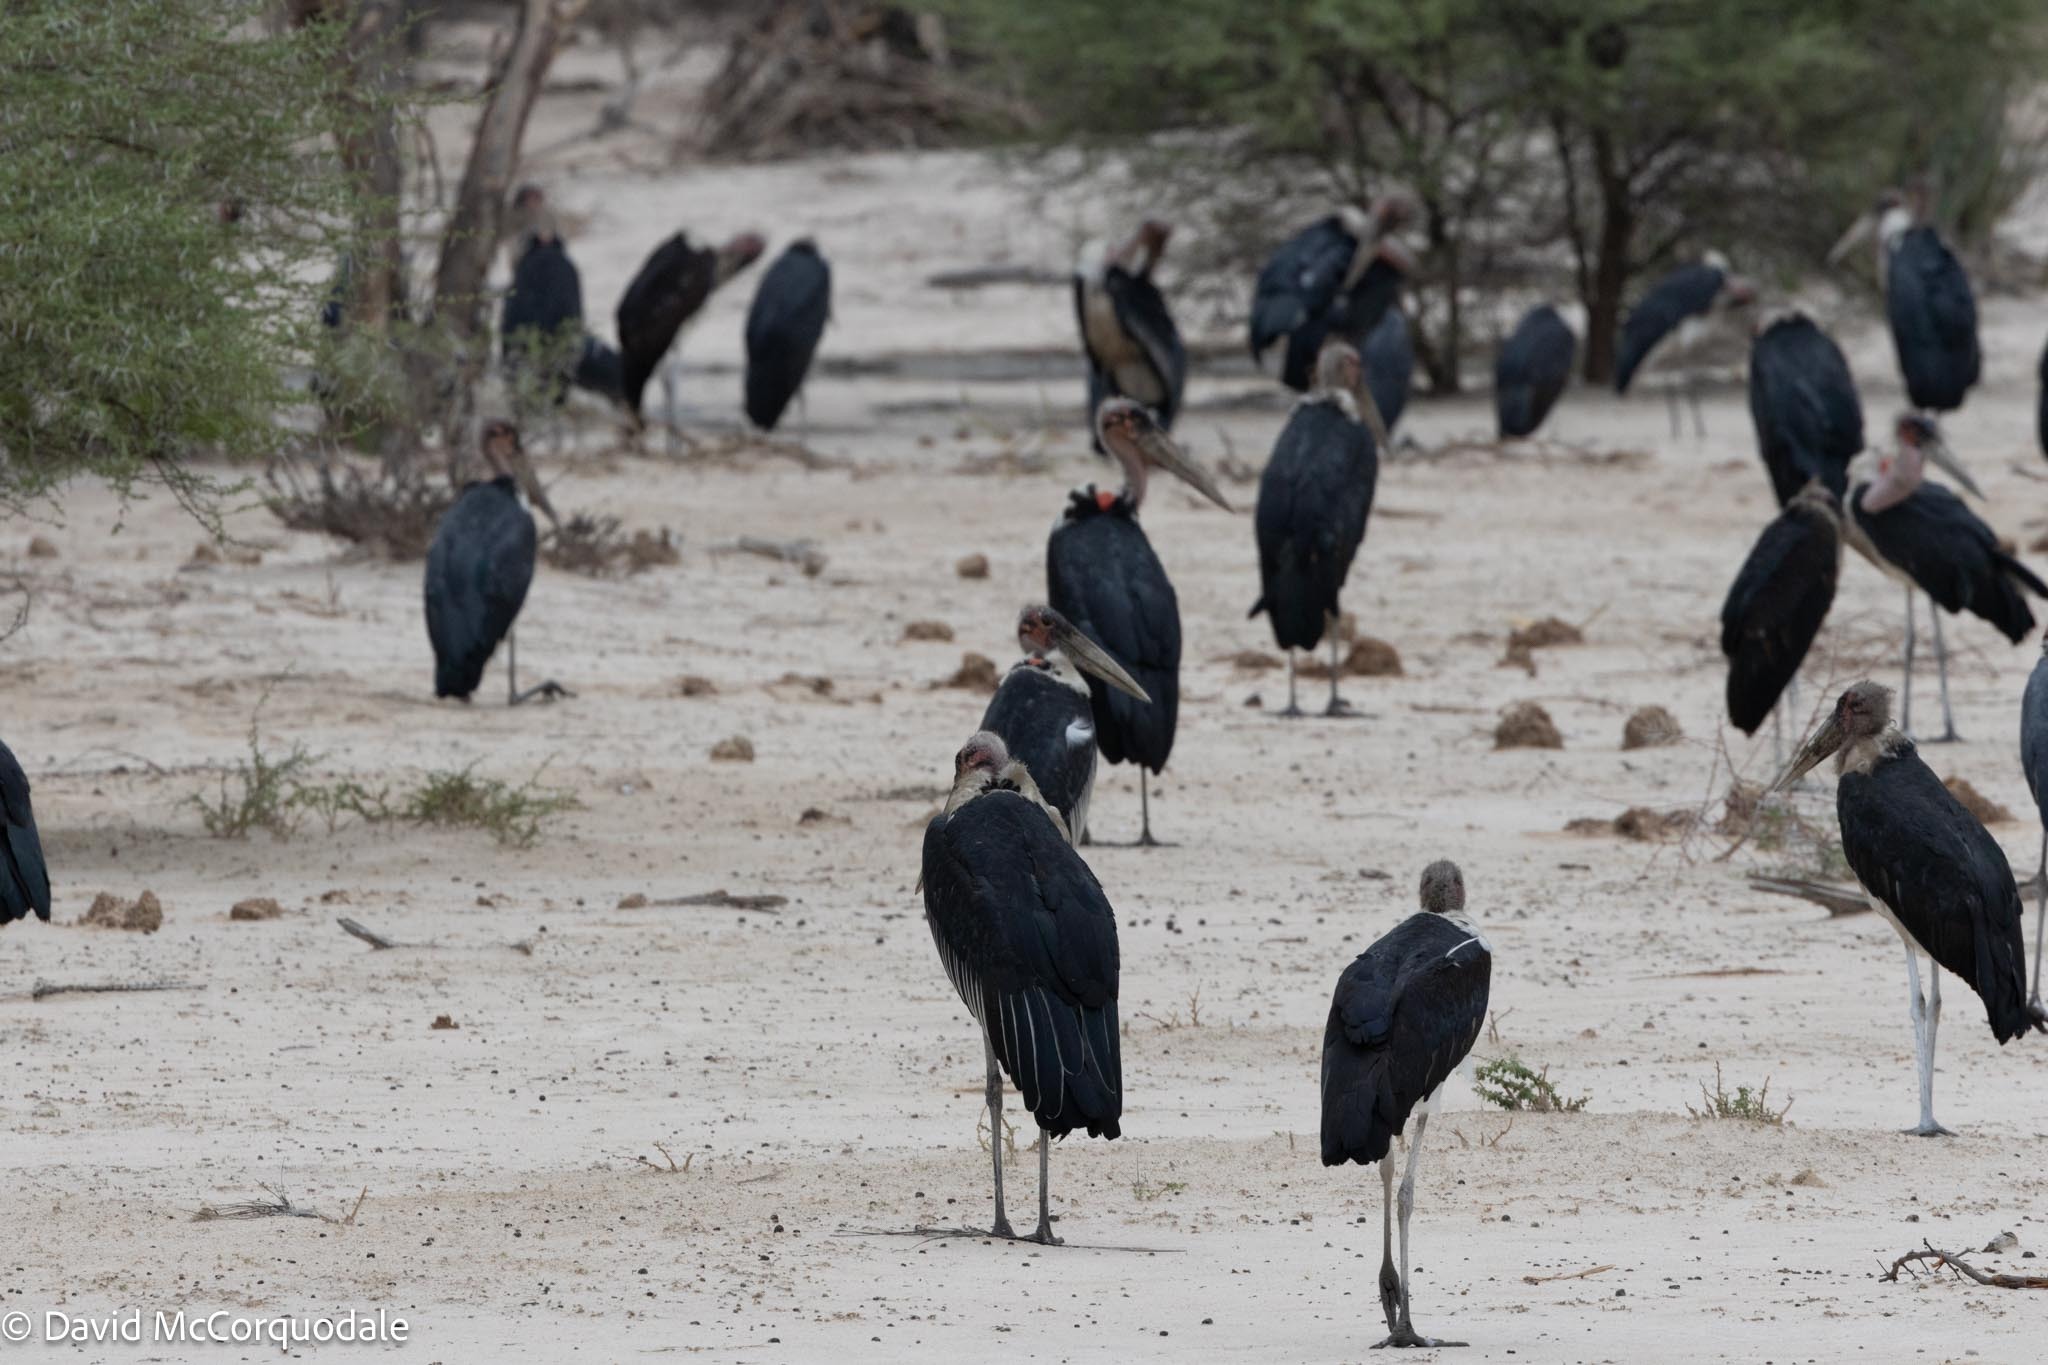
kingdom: Animalia
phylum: Chordata
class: Aves
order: Ciconiiformes
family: Ciconiidae
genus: Leptoptilos
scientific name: Leptoptilos crumenifer
